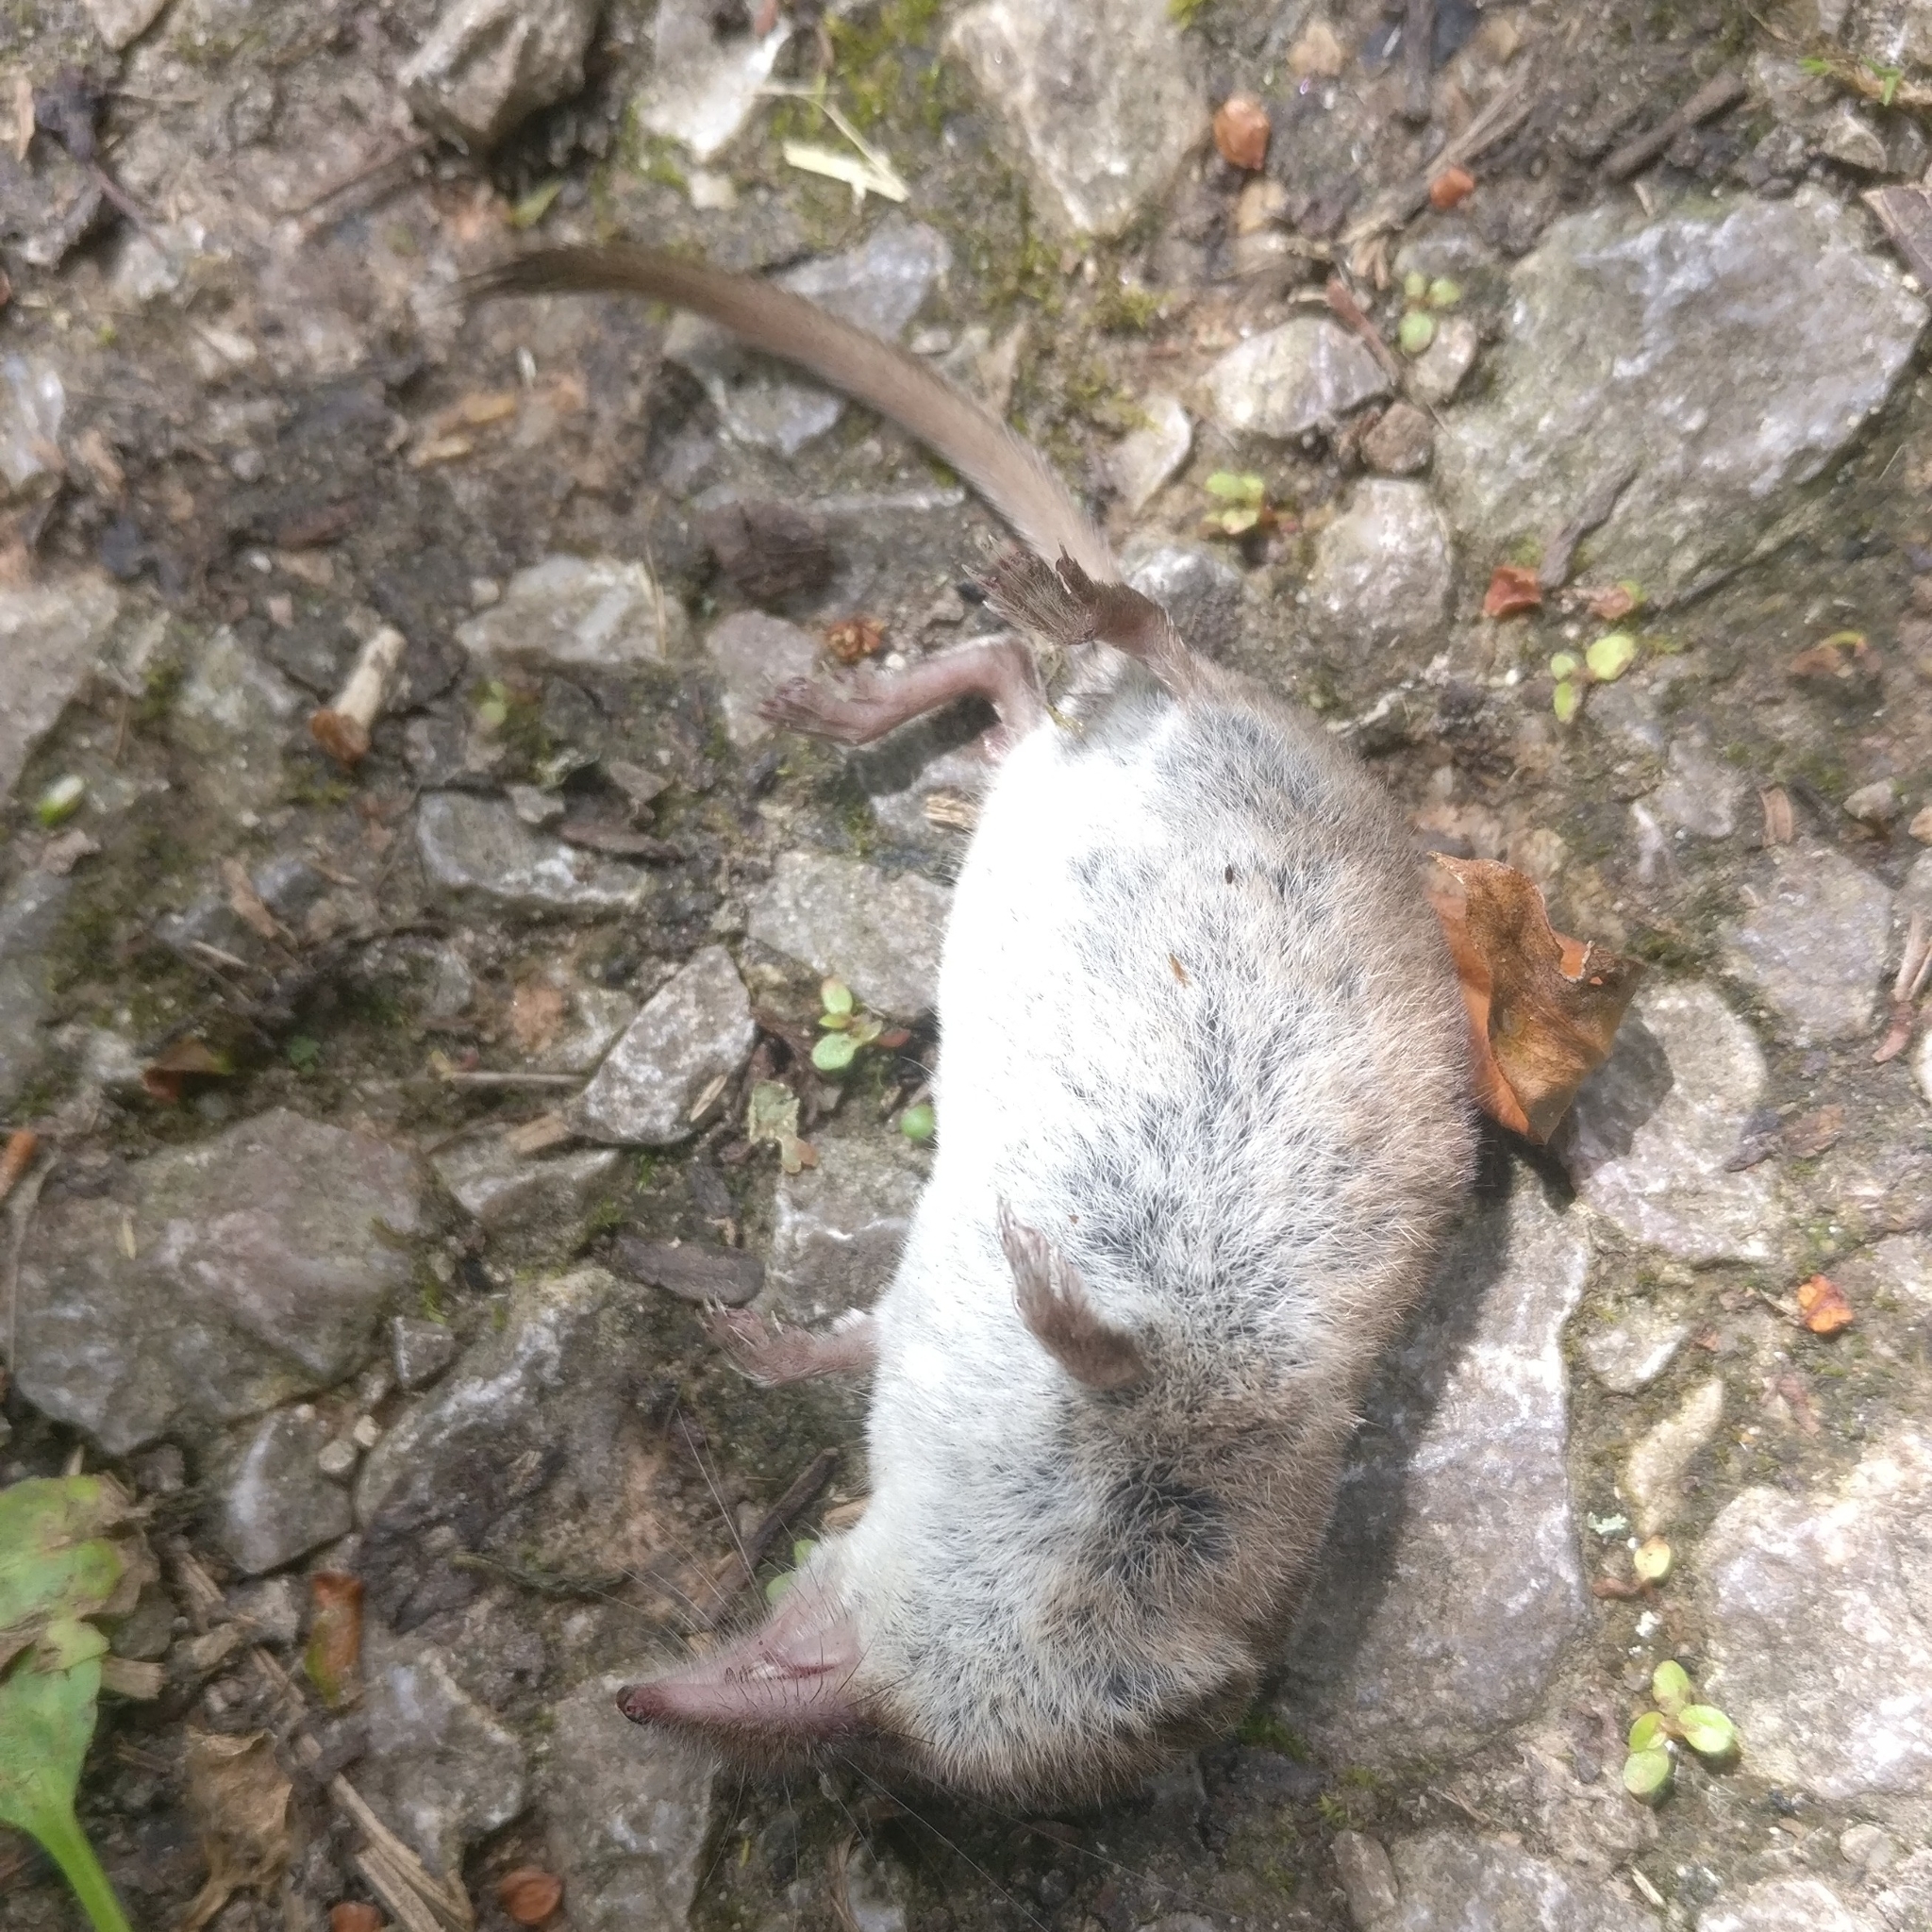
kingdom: Animalia
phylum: Chordata
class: Mammalia
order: Soricomorpha
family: Soricidae
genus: Sorex
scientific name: Sorex araneus
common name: Common shrew
